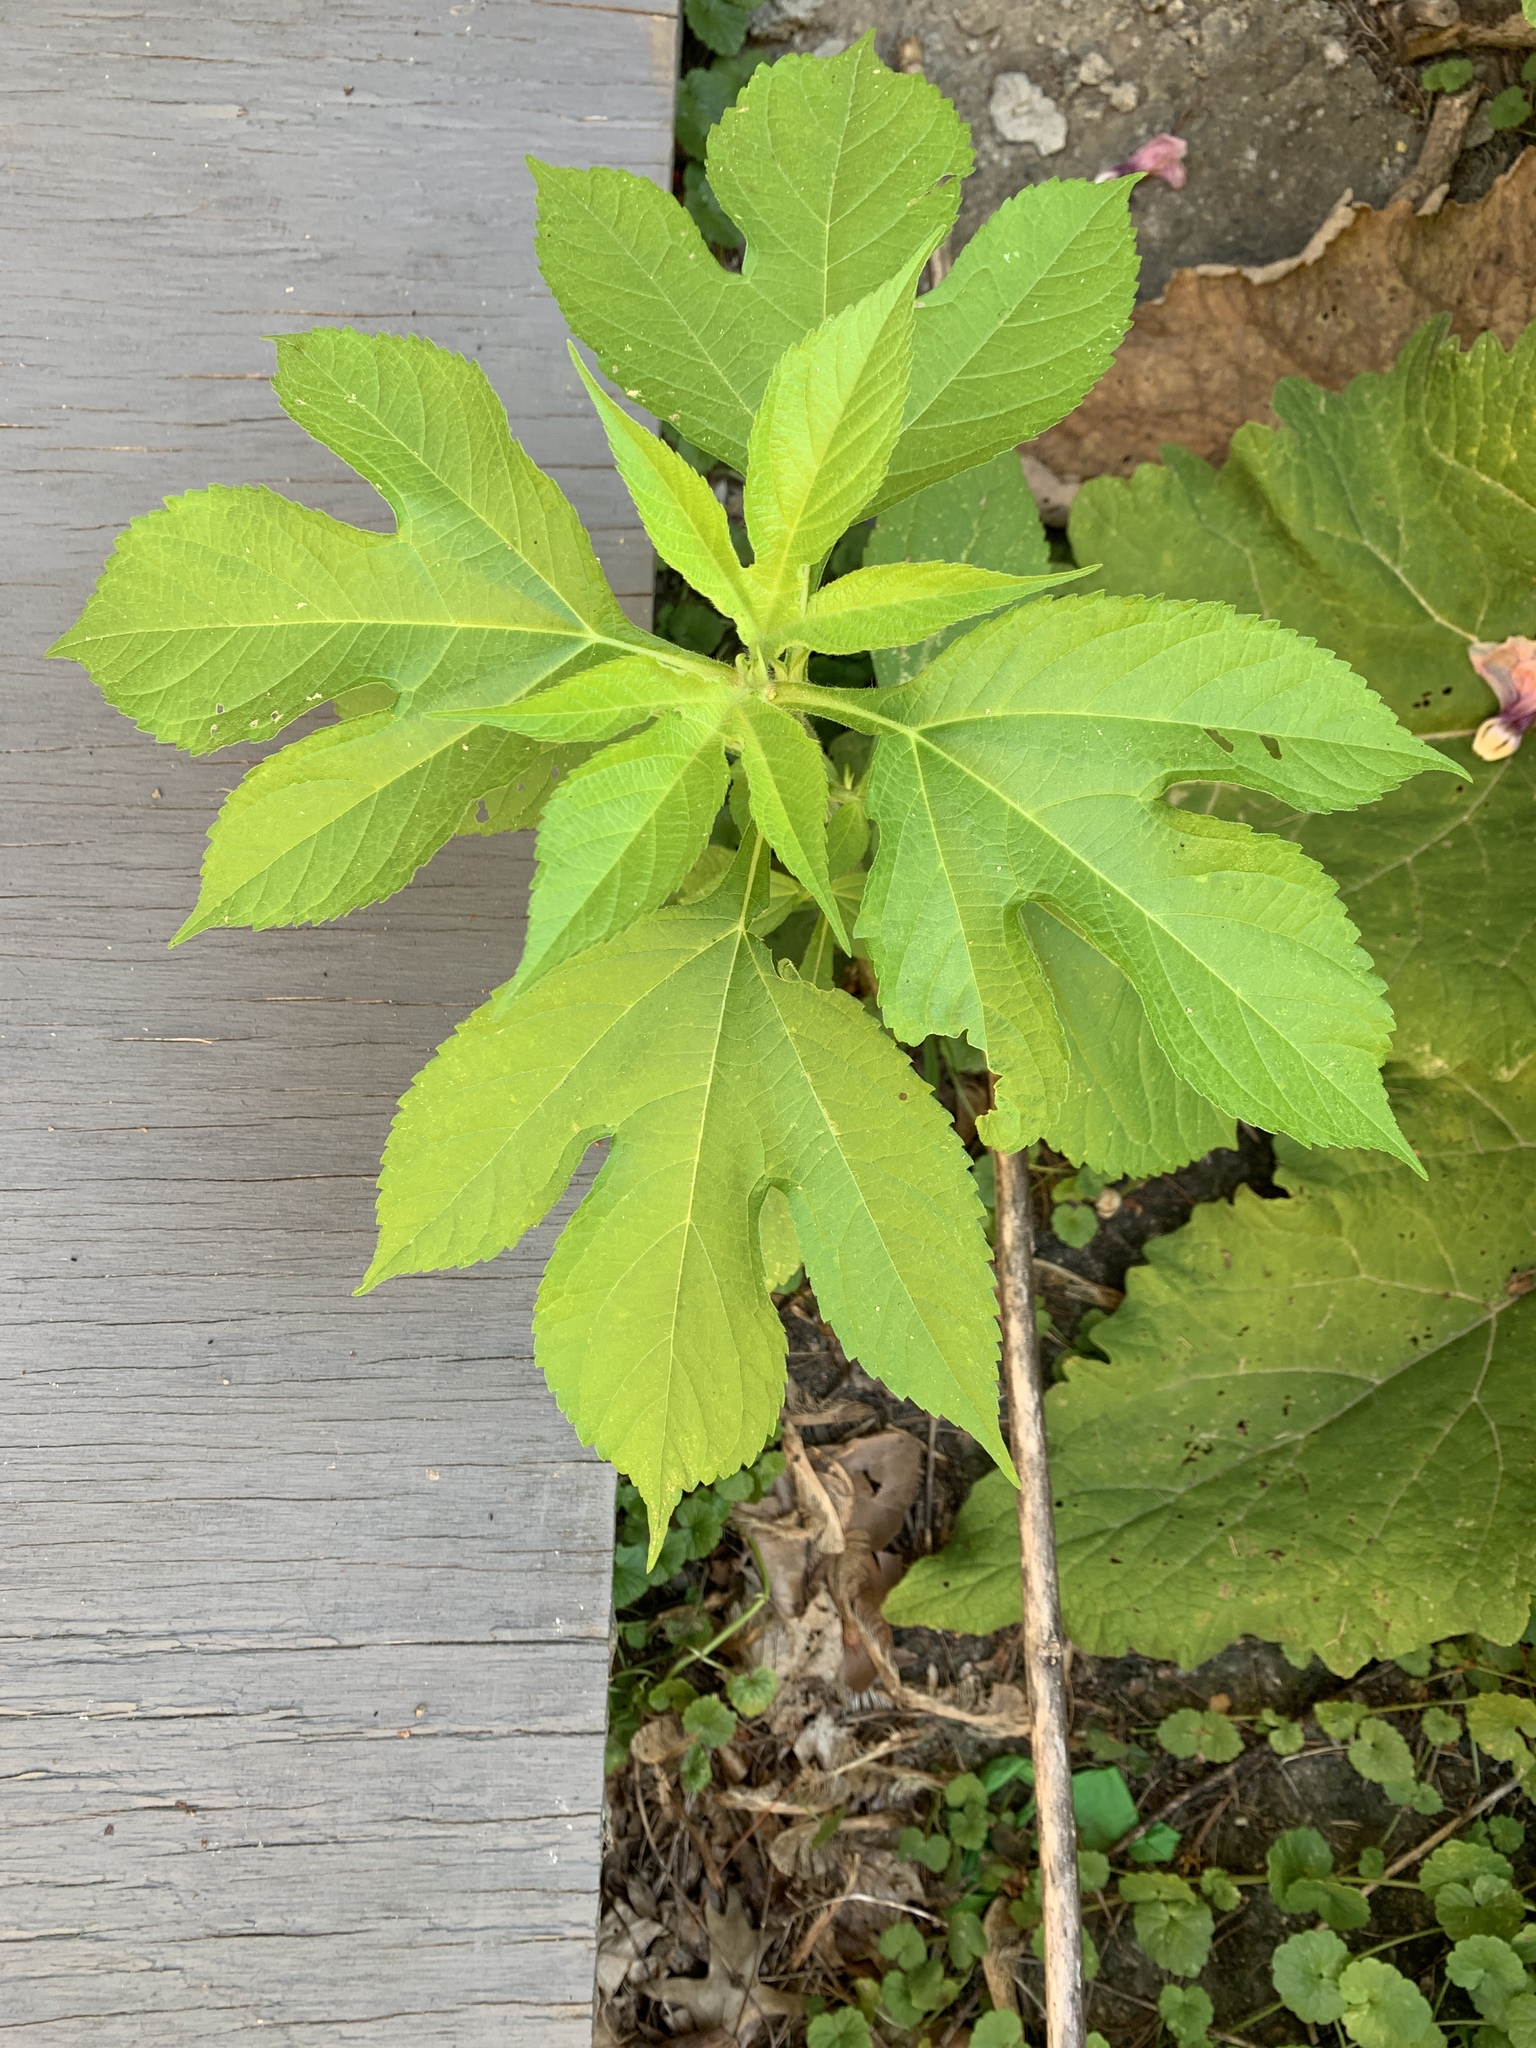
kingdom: Plantae
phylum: Tracheophyta
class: Magnoliopsida
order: Asterales
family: Asteraceae
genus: Ambrosia
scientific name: Ambrosia trifida
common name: Giant ragweed
